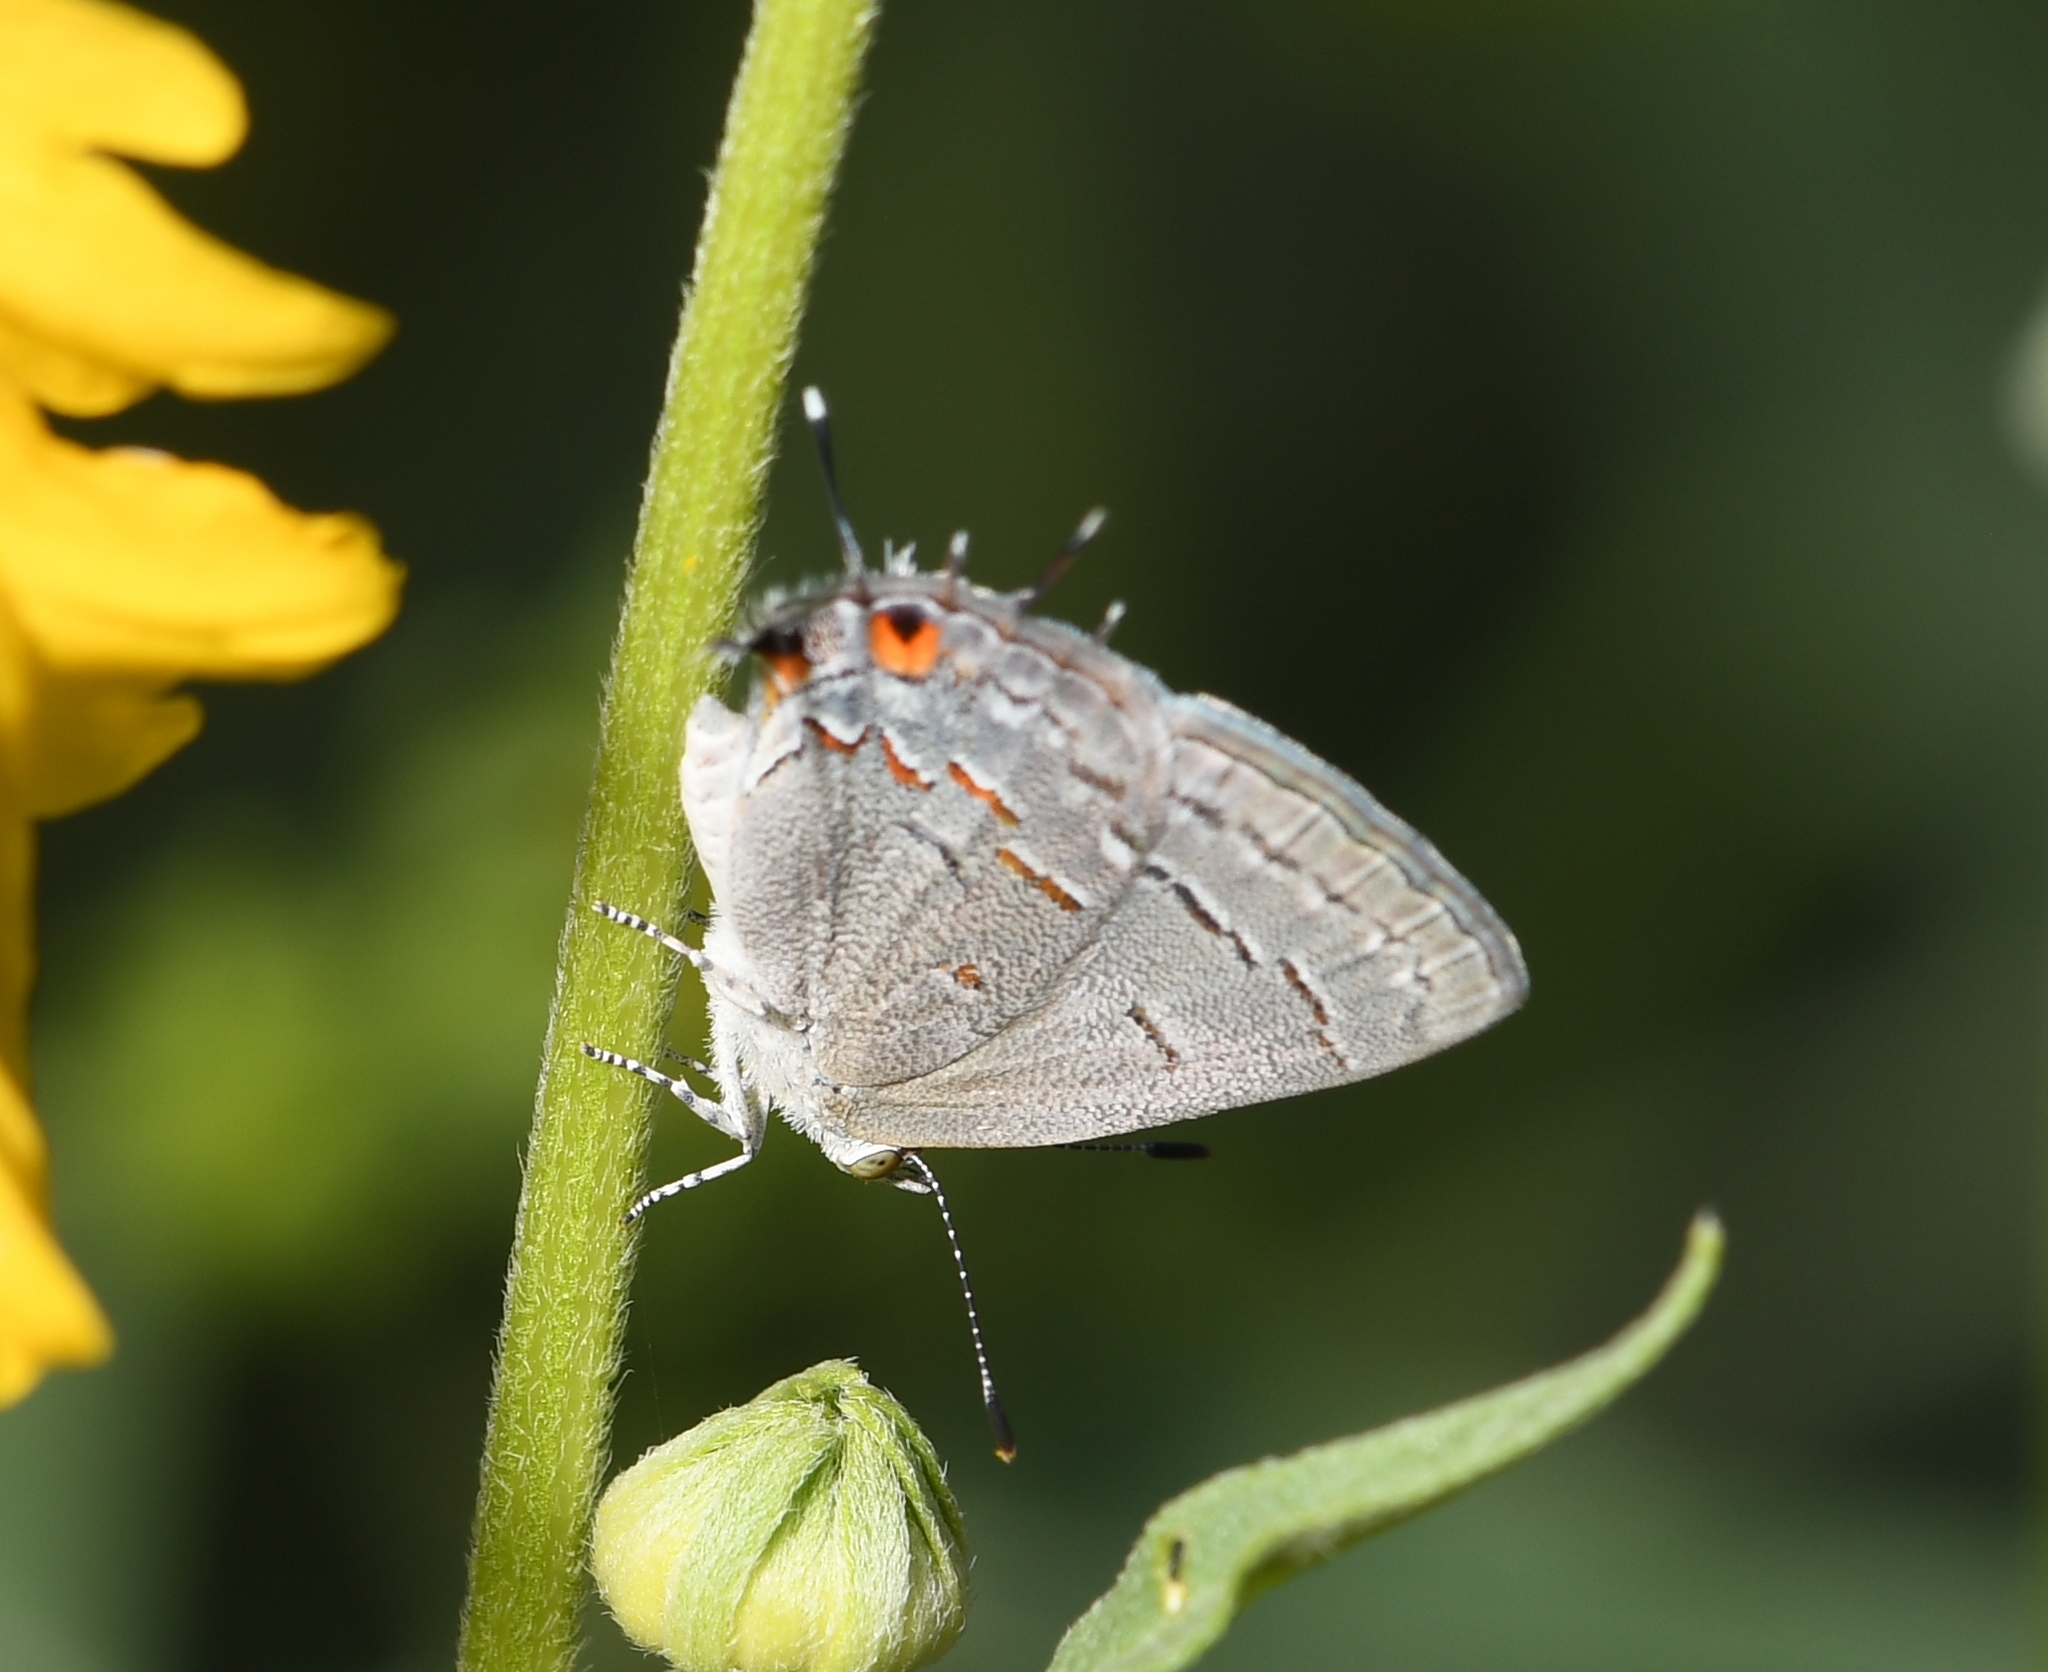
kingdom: Animalia
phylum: Arthropoda
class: Insecta
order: Lepidoptera
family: Lycaenidae
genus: Ministrymon
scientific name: Ministrymon leda
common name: Leda ministreak
